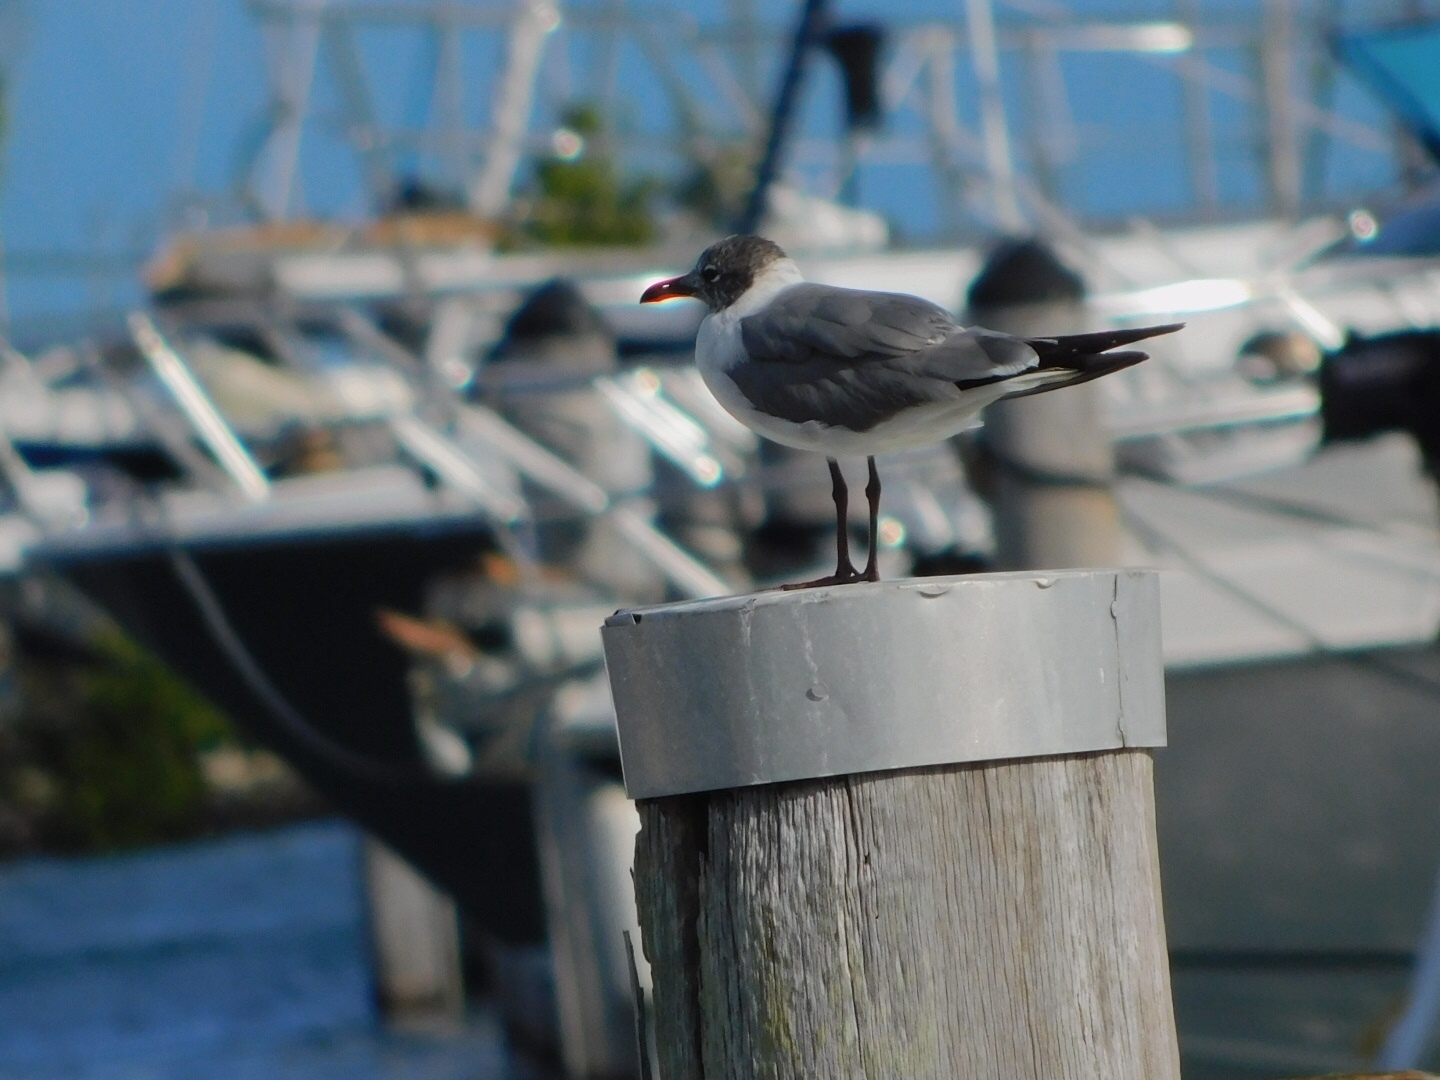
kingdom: Animalia
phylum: Chordata
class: Aves
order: Charadriiformes
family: Laridae
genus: Leucophaeus
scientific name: Leucophaeus atricilla
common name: Laughing gull
